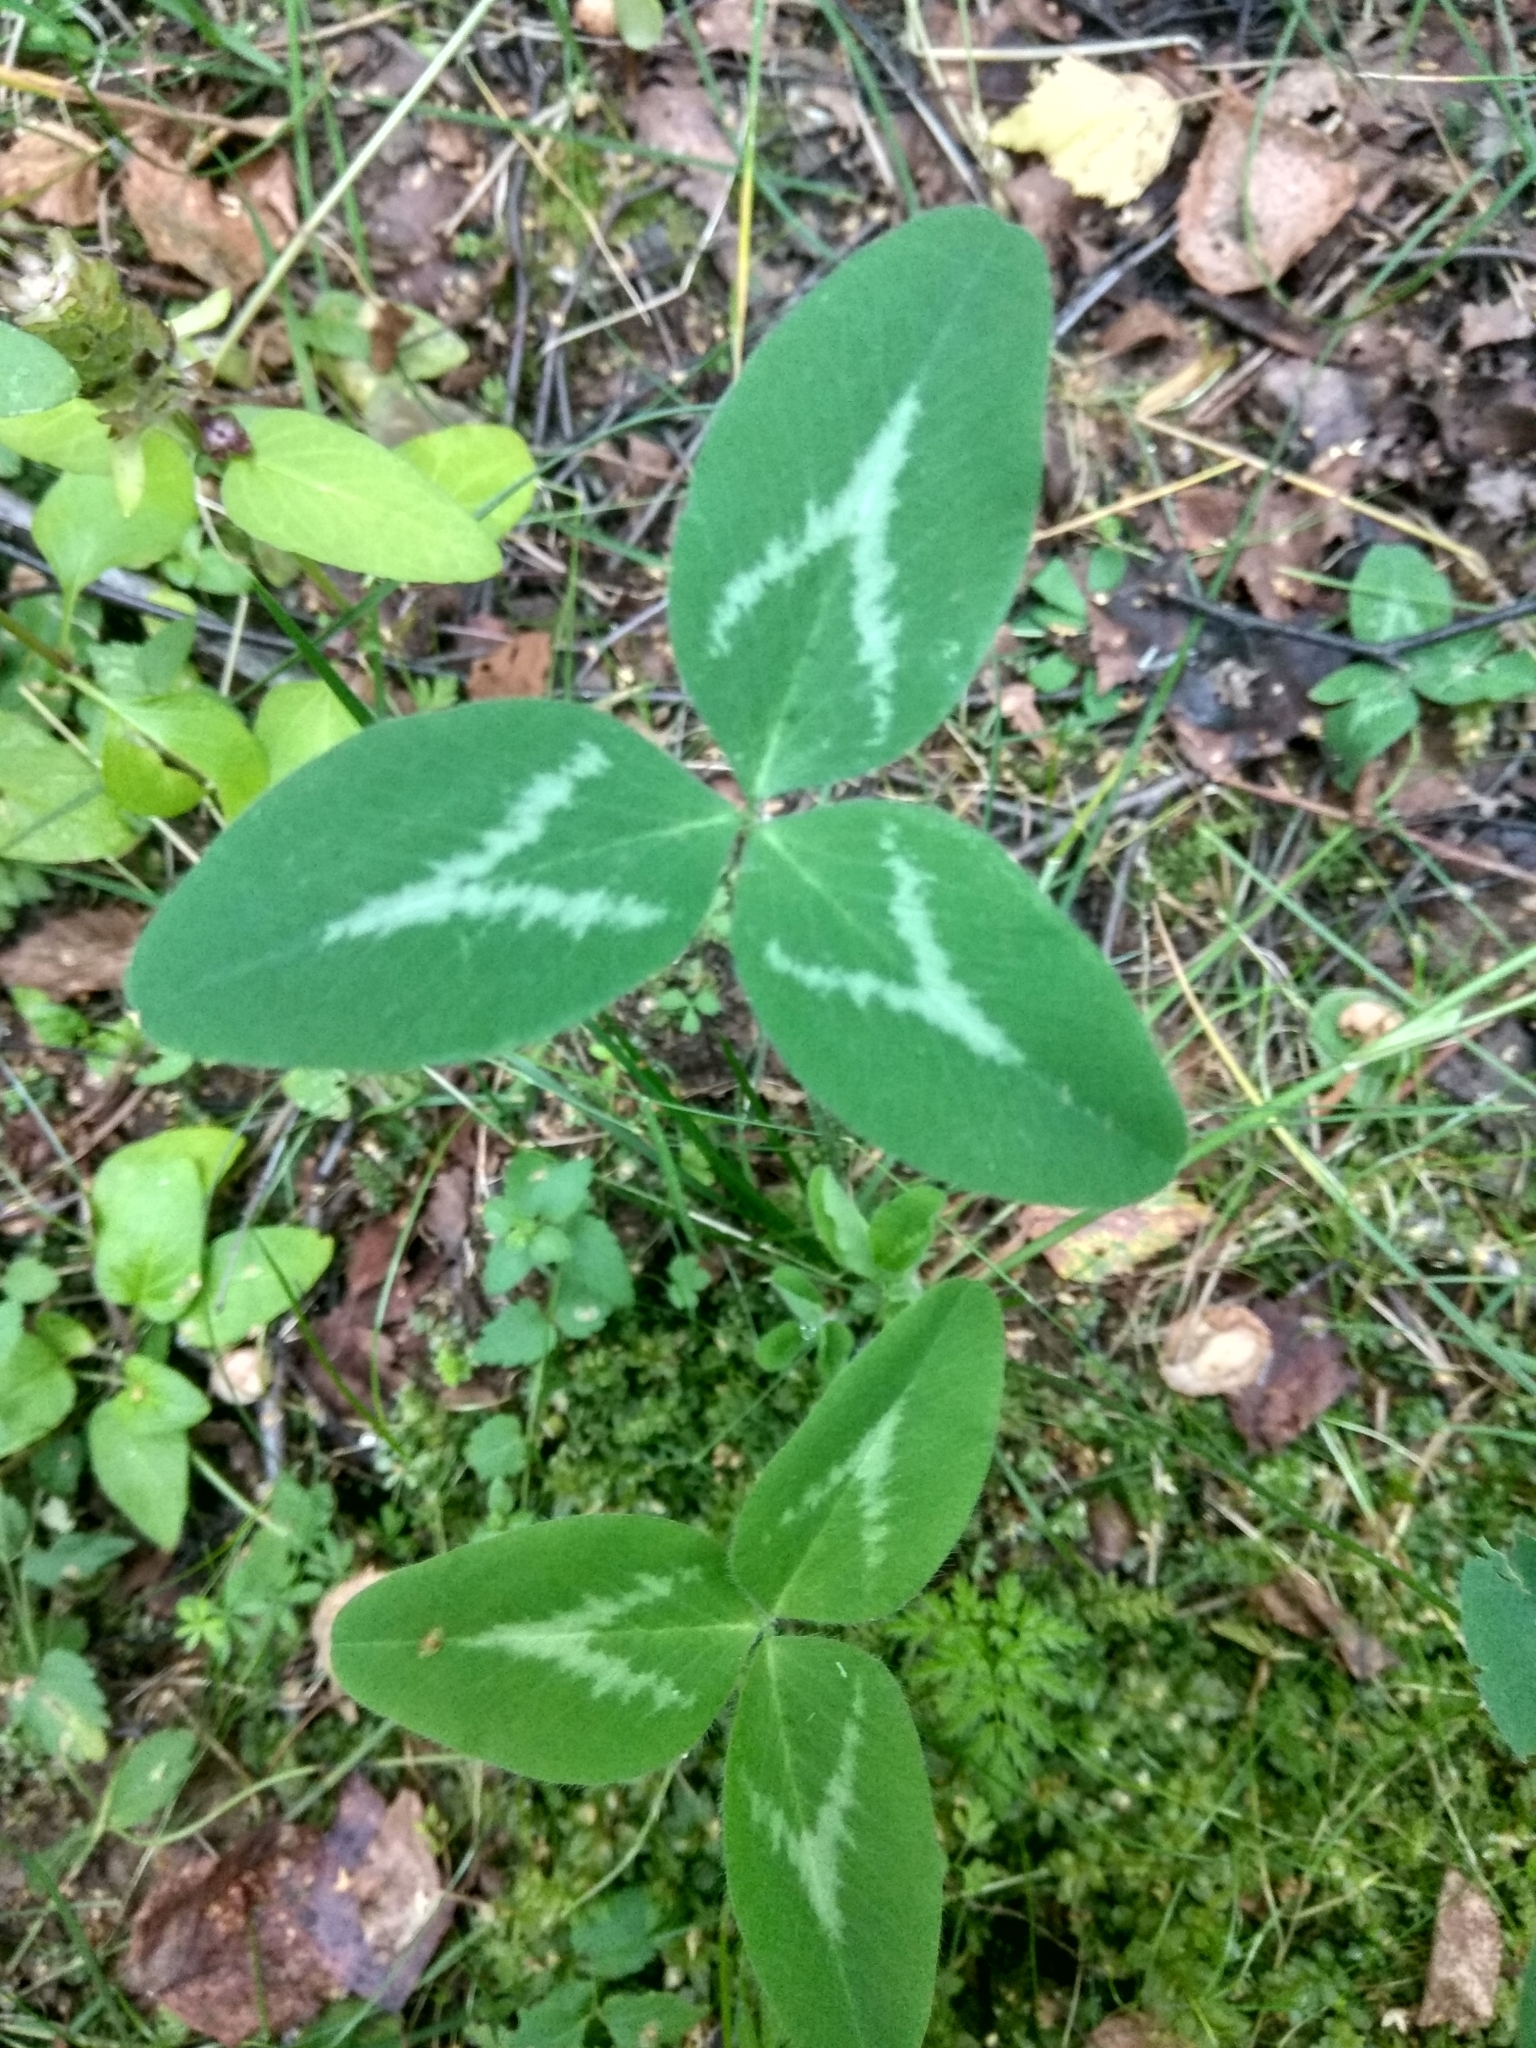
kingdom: Plantae
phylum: Tracheophyta
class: Magnoliopsida
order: Fabales
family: Fabaceae
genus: Trifolium
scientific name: Trifolium pratense
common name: Red clover
